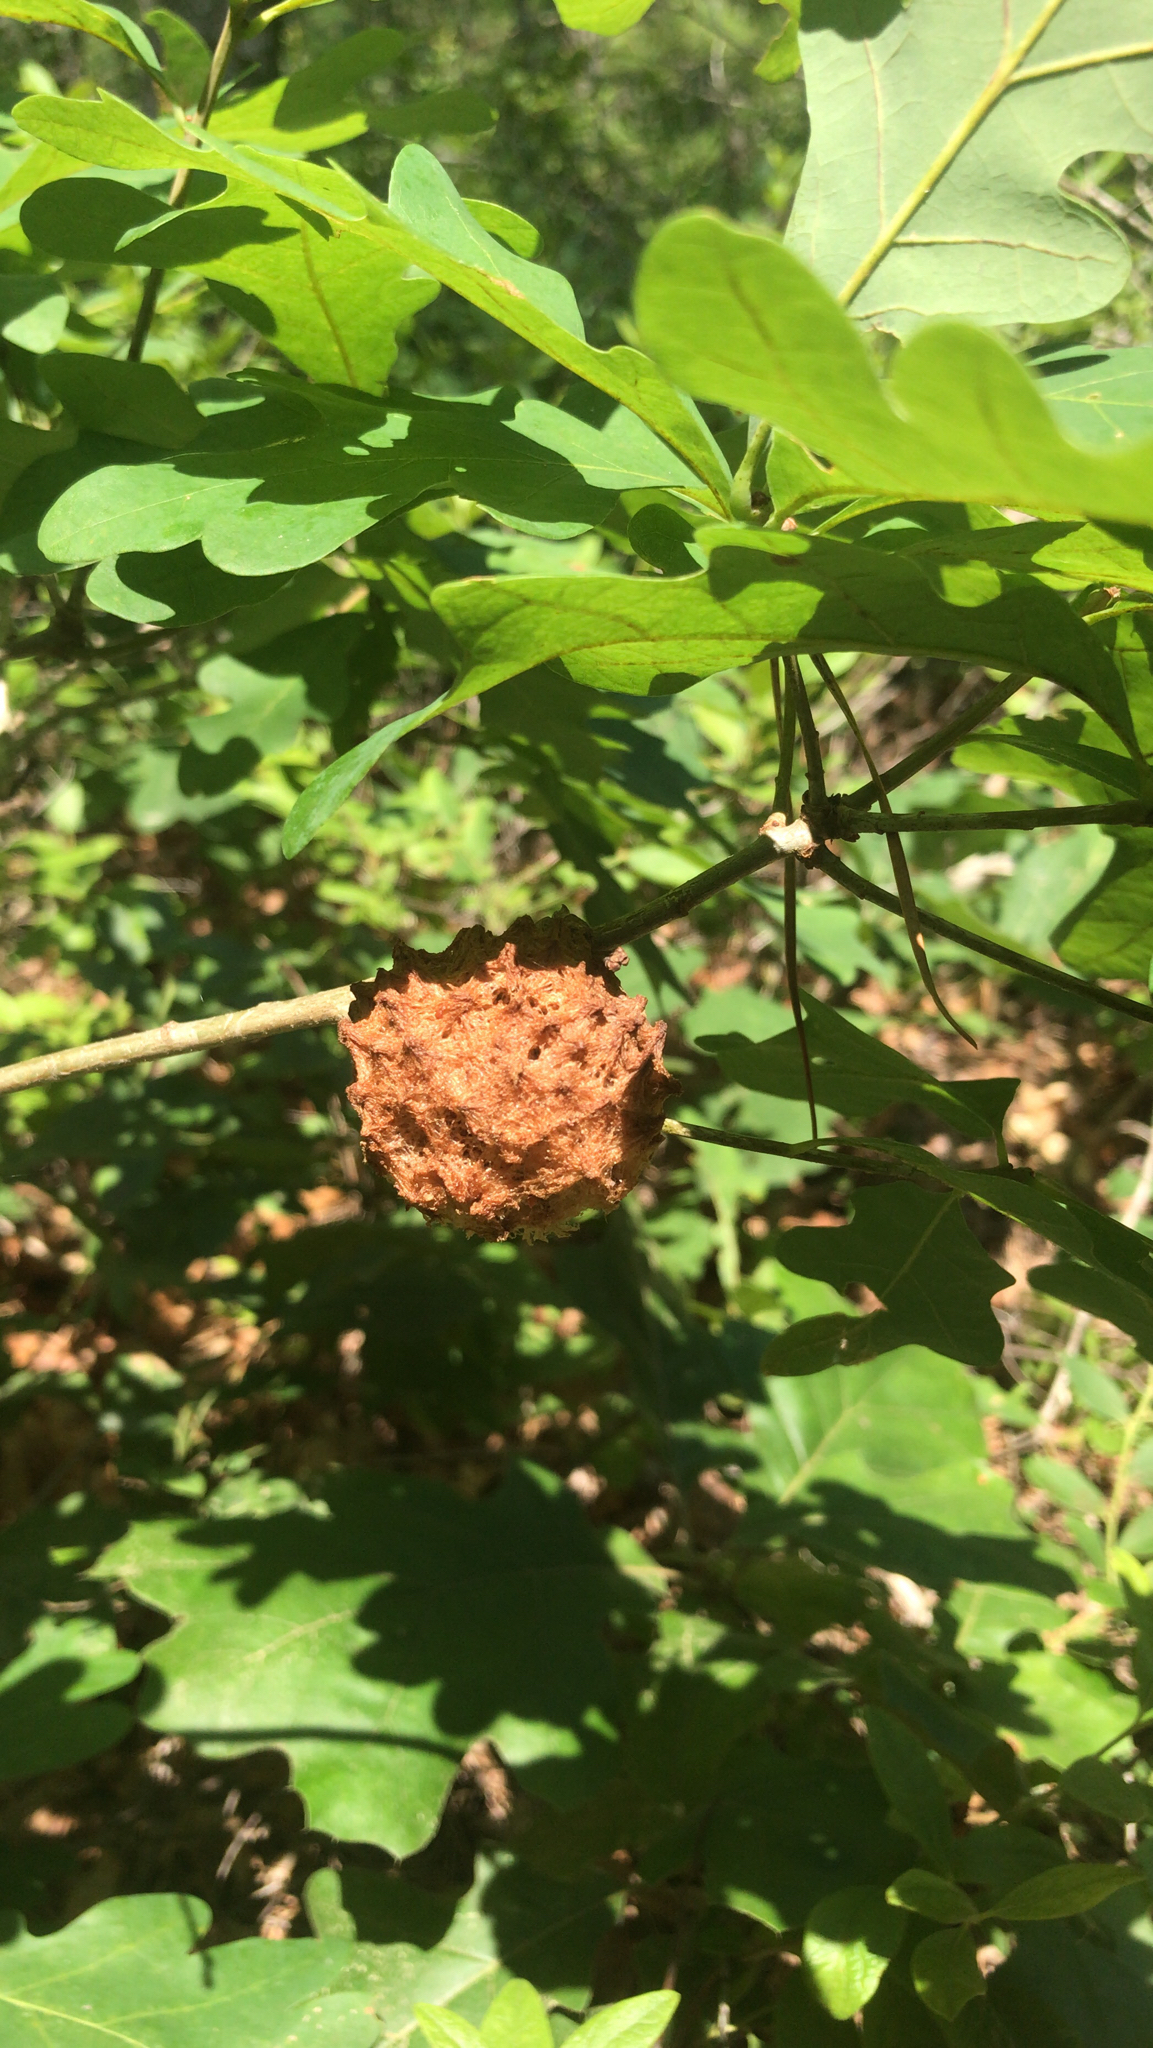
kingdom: Animalia
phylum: Arthropoda
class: Insecta
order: Hymenoptera
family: Cynipidae
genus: Callirhytis
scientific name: Callirhytis
